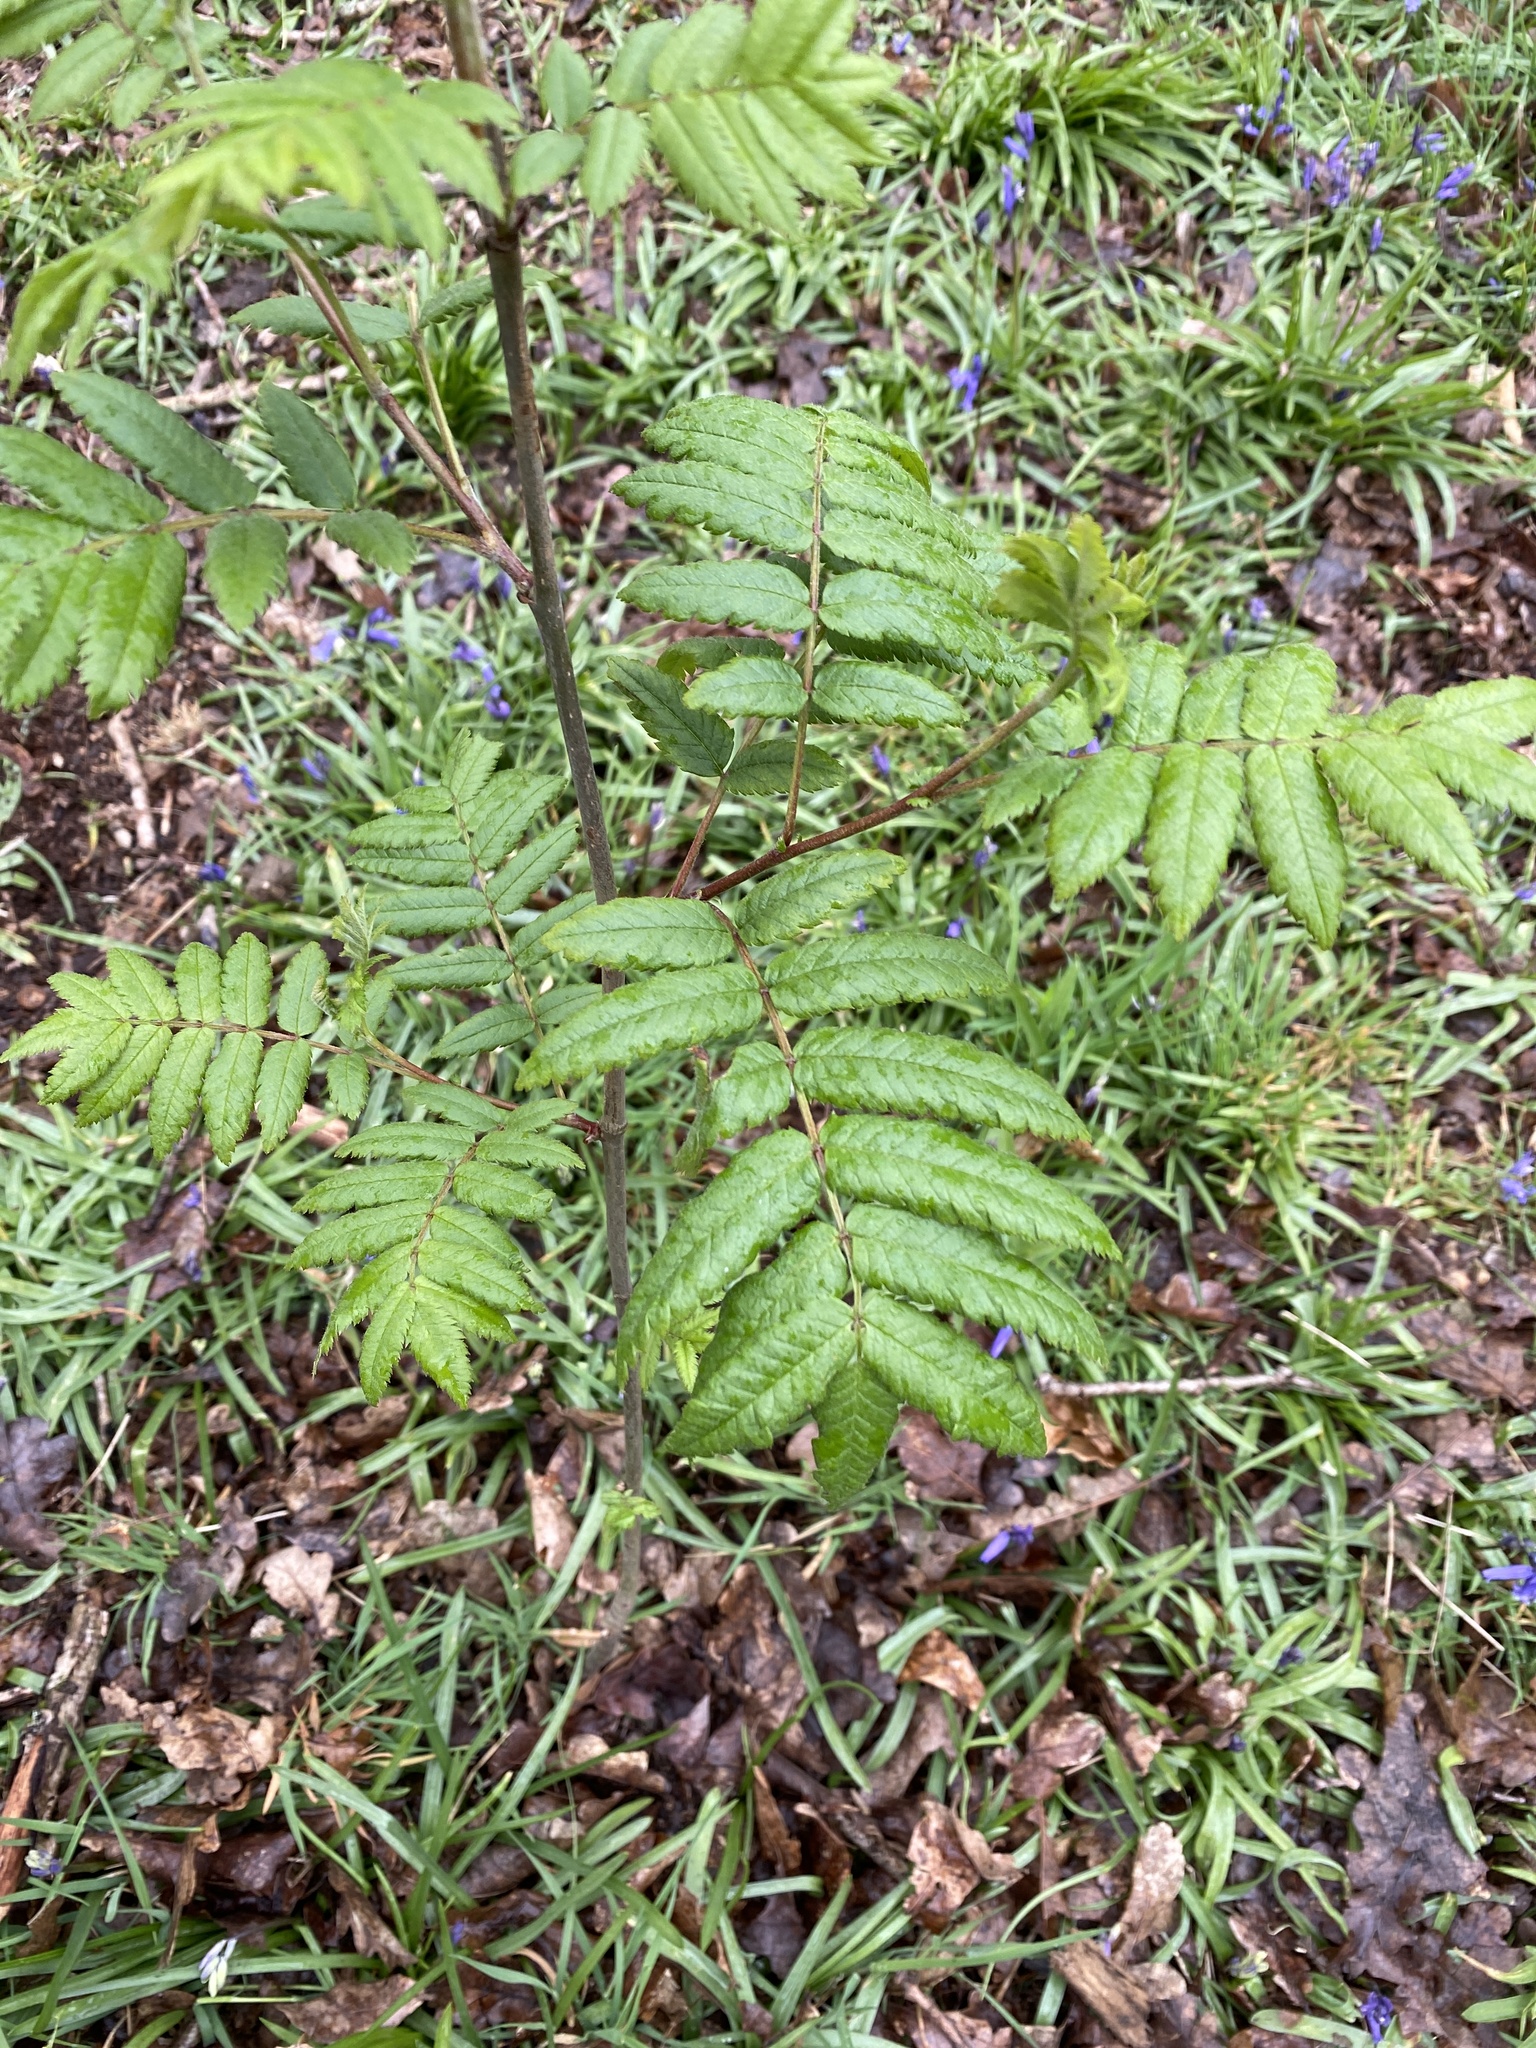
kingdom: Plantae
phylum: Tracheophyta
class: Magnoliopsida
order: Rosales
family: Rosaceae
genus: Sorbus
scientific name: Sorbus aucuparia
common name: Rowan
